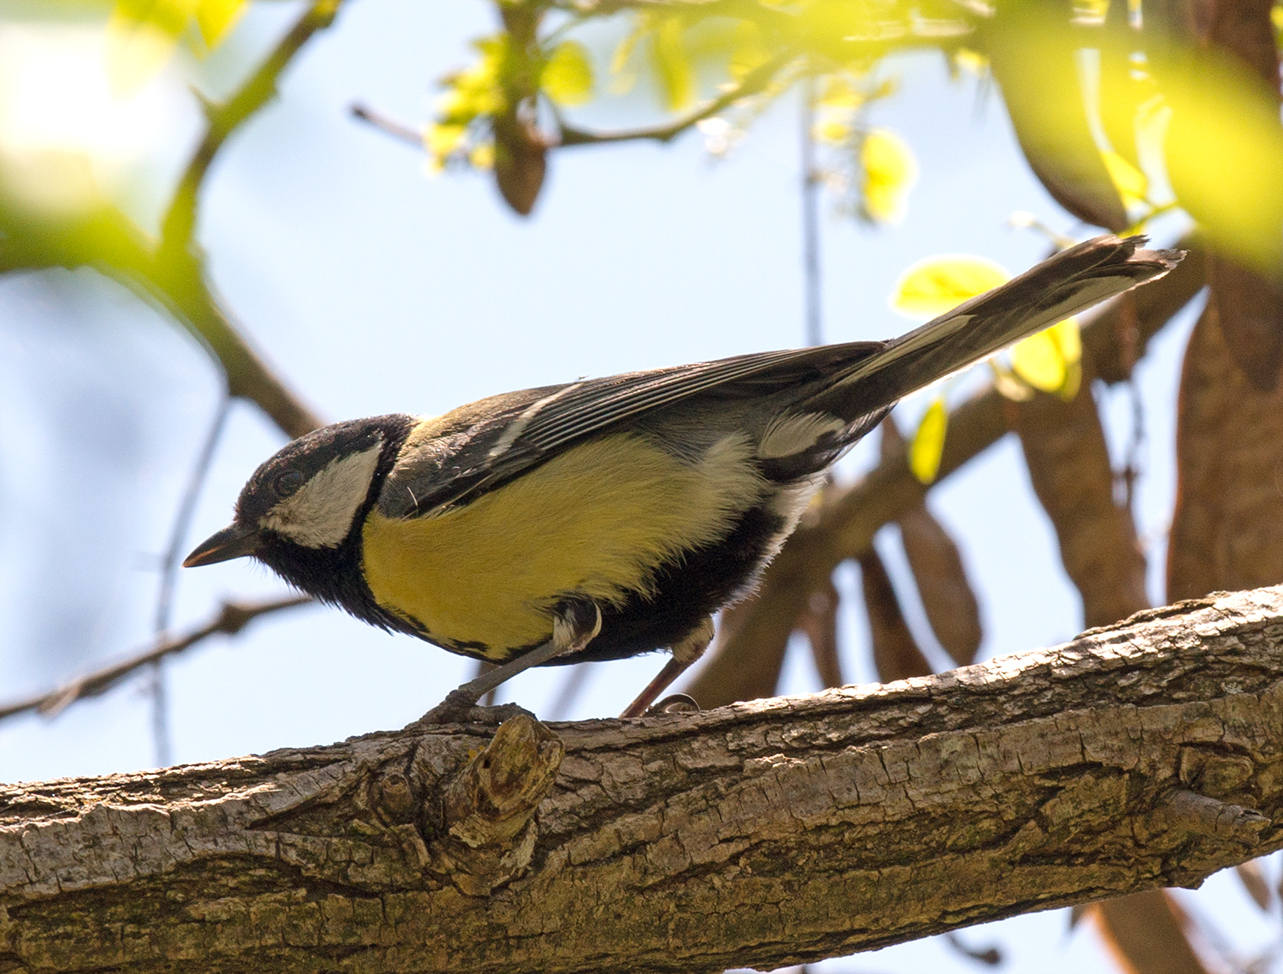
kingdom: Animalia
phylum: Chordata
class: Aves
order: Passeriformes
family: Paridae
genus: Parus
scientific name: Parus major
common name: Great tit
